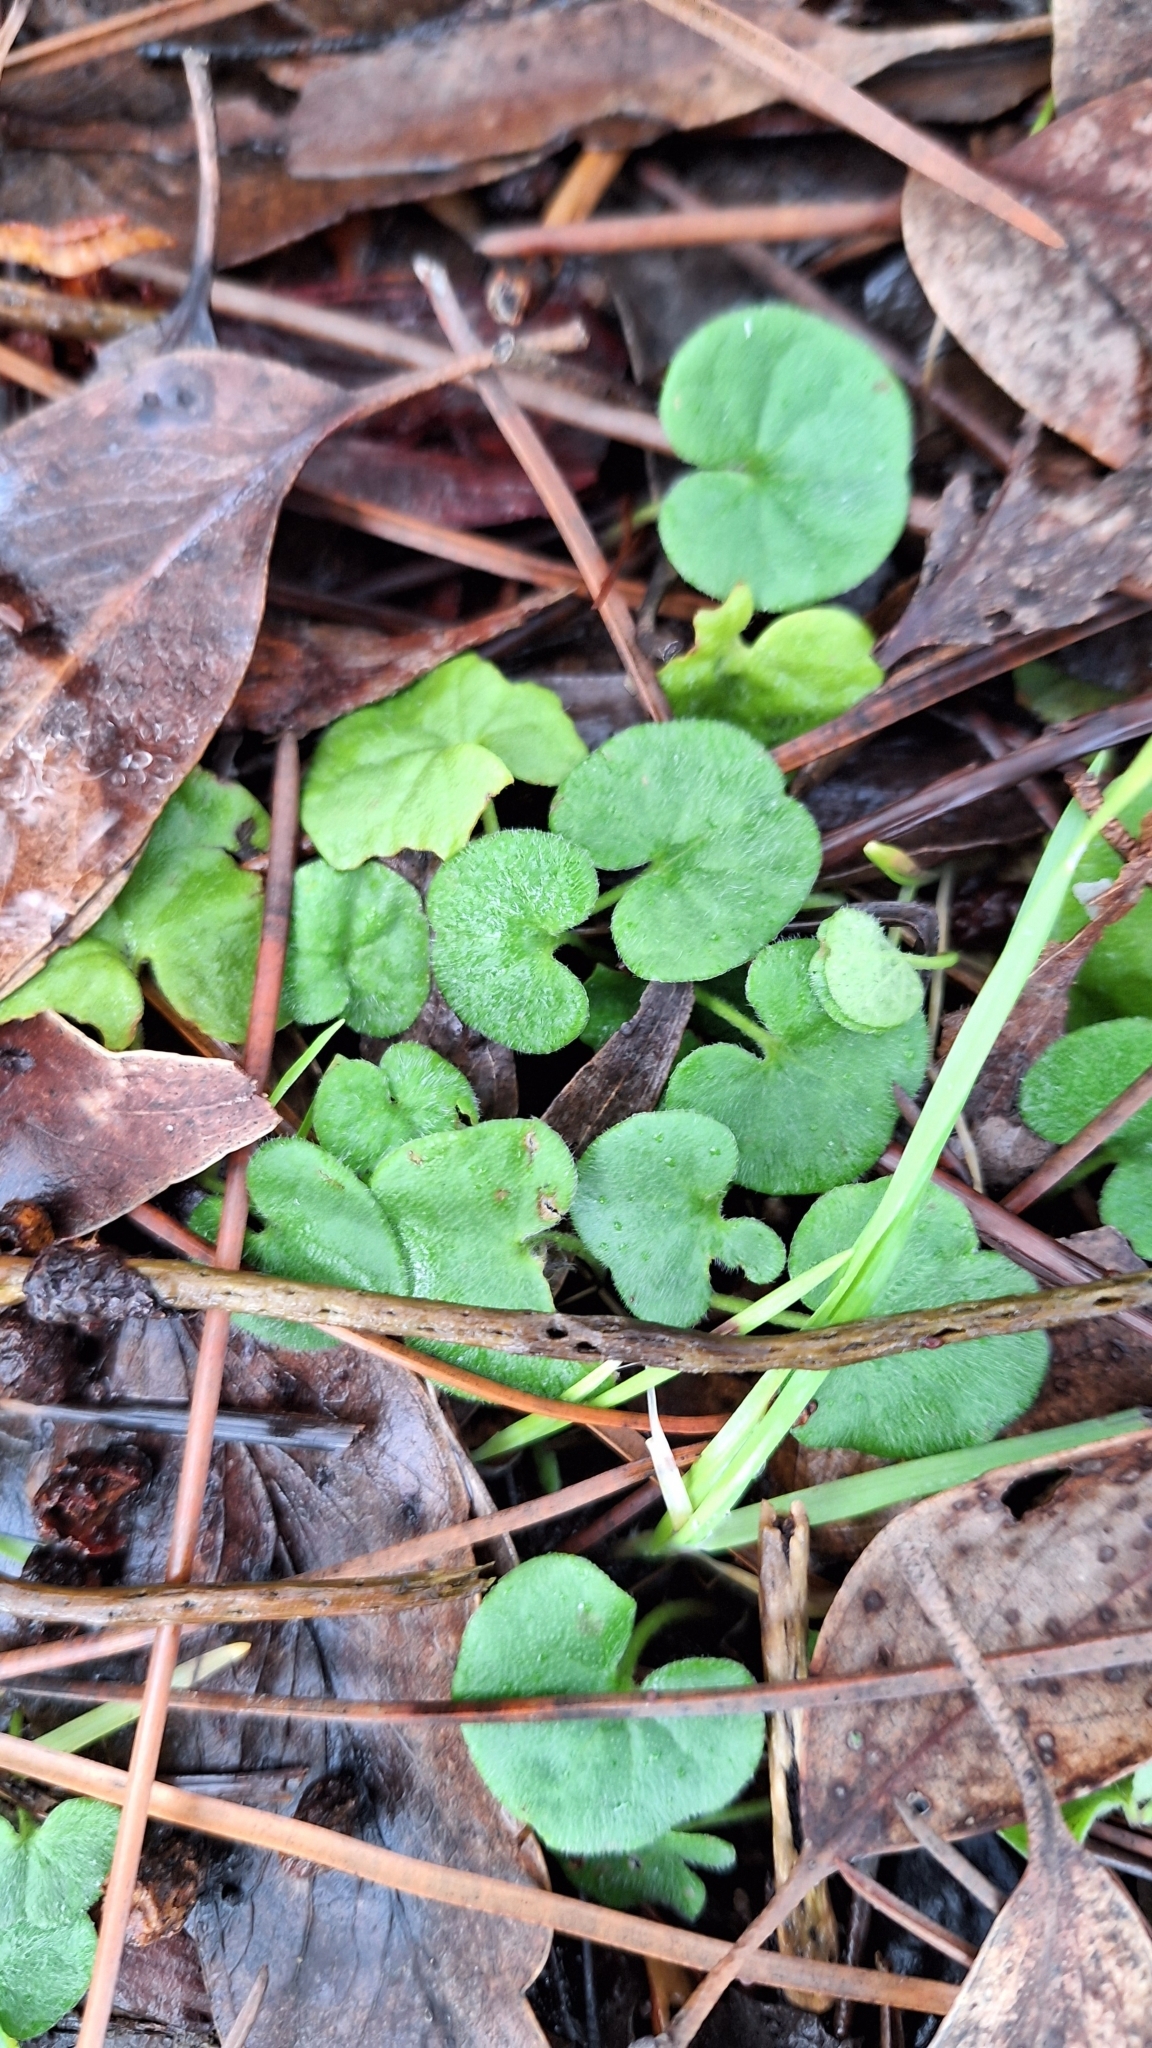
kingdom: Plantae
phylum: Tracheophyta
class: Magnoliopsida
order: Solanales
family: Convolvulaceae
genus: Dichondra
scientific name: Dichondra repens
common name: Kidneyweed
